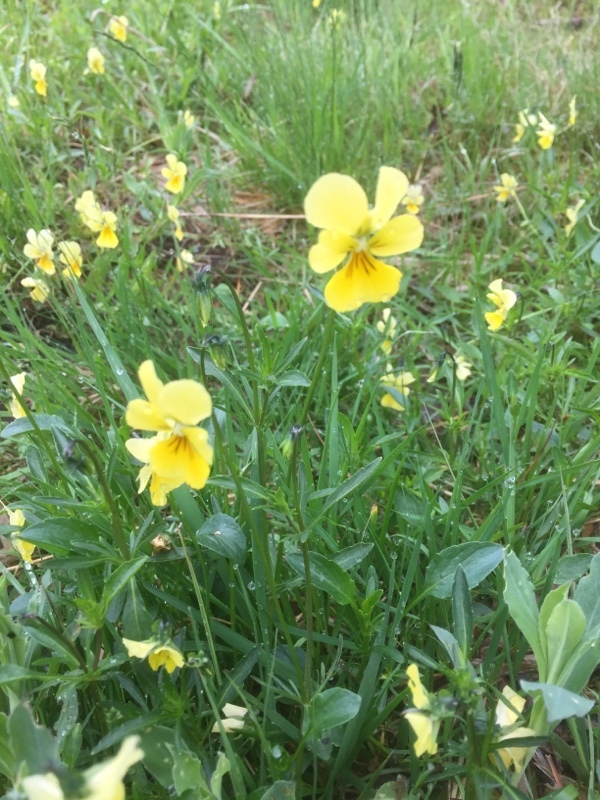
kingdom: Plantae
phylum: Tracheophyta
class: Magnoliopsida
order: Malpighiales
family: Violaceae
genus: Viola
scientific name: Viola lutea
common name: Mountain pansy
